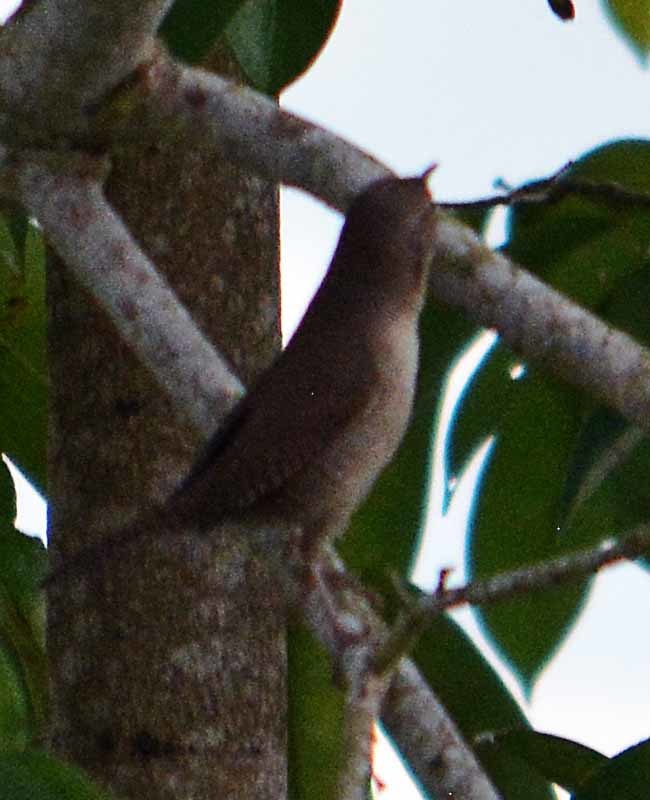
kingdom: Animalia
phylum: Chordata
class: Aves
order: Passeriformes
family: Troglodytidae
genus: Troglodytes
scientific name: Troglodytes aedon
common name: House wren
